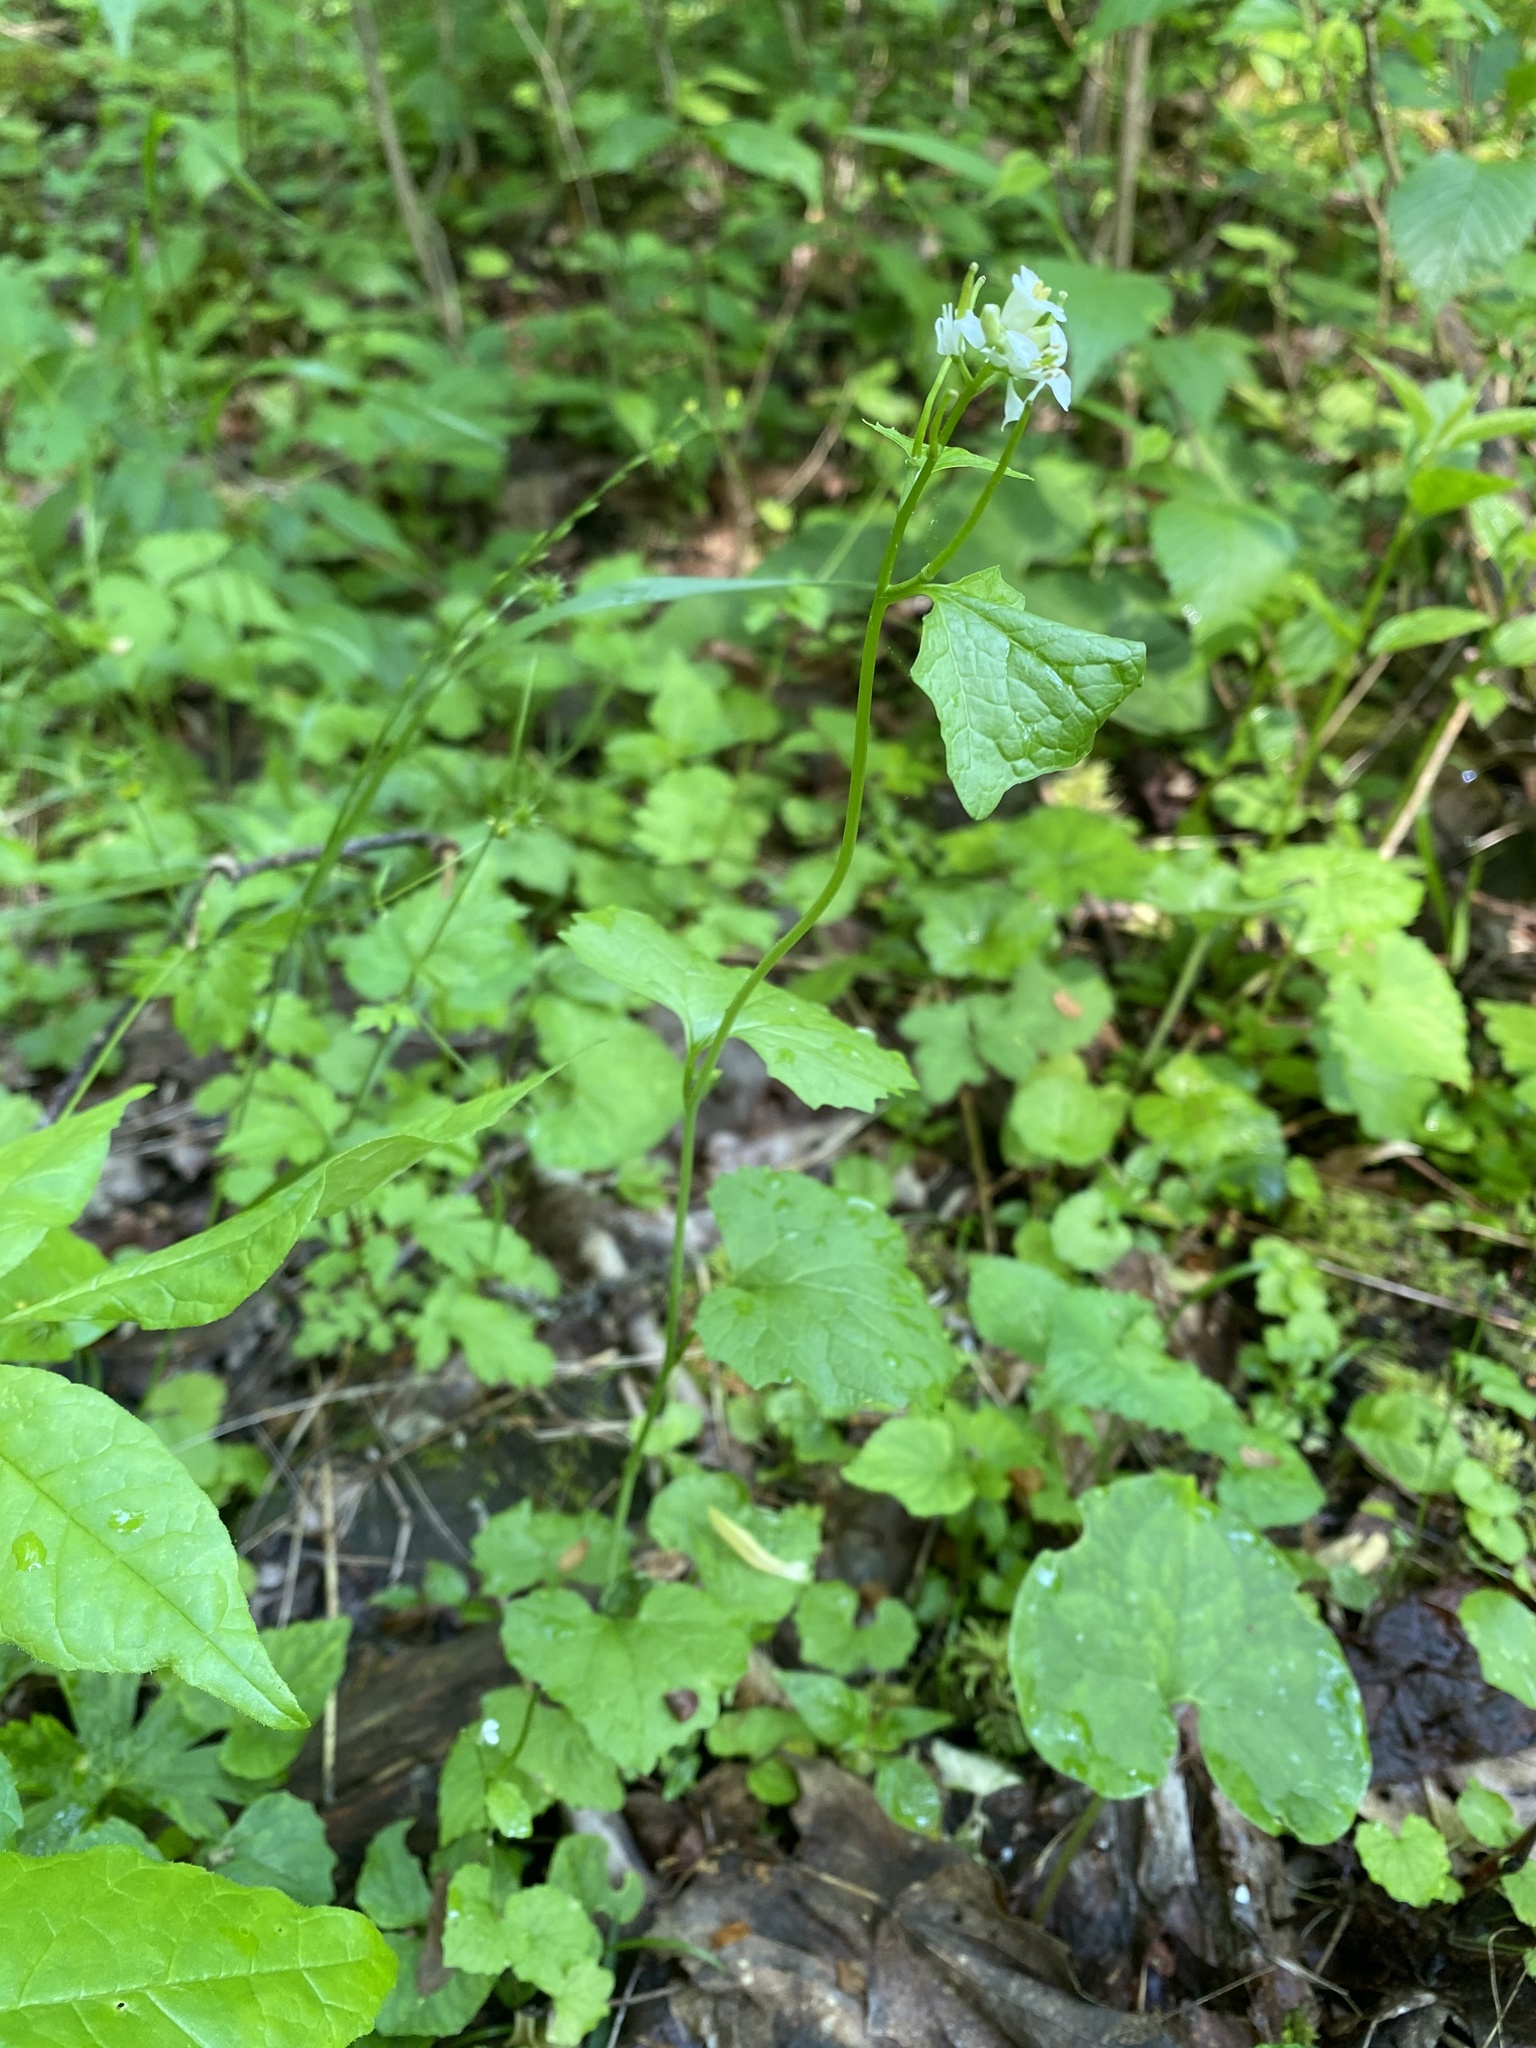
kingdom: Plantae
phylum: Tracheophyta
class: Magnoliopsida
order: Brassicales
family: Brassicaceae
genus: Alliaria
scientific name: Alliaria petiolata
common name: Garlic mustard
